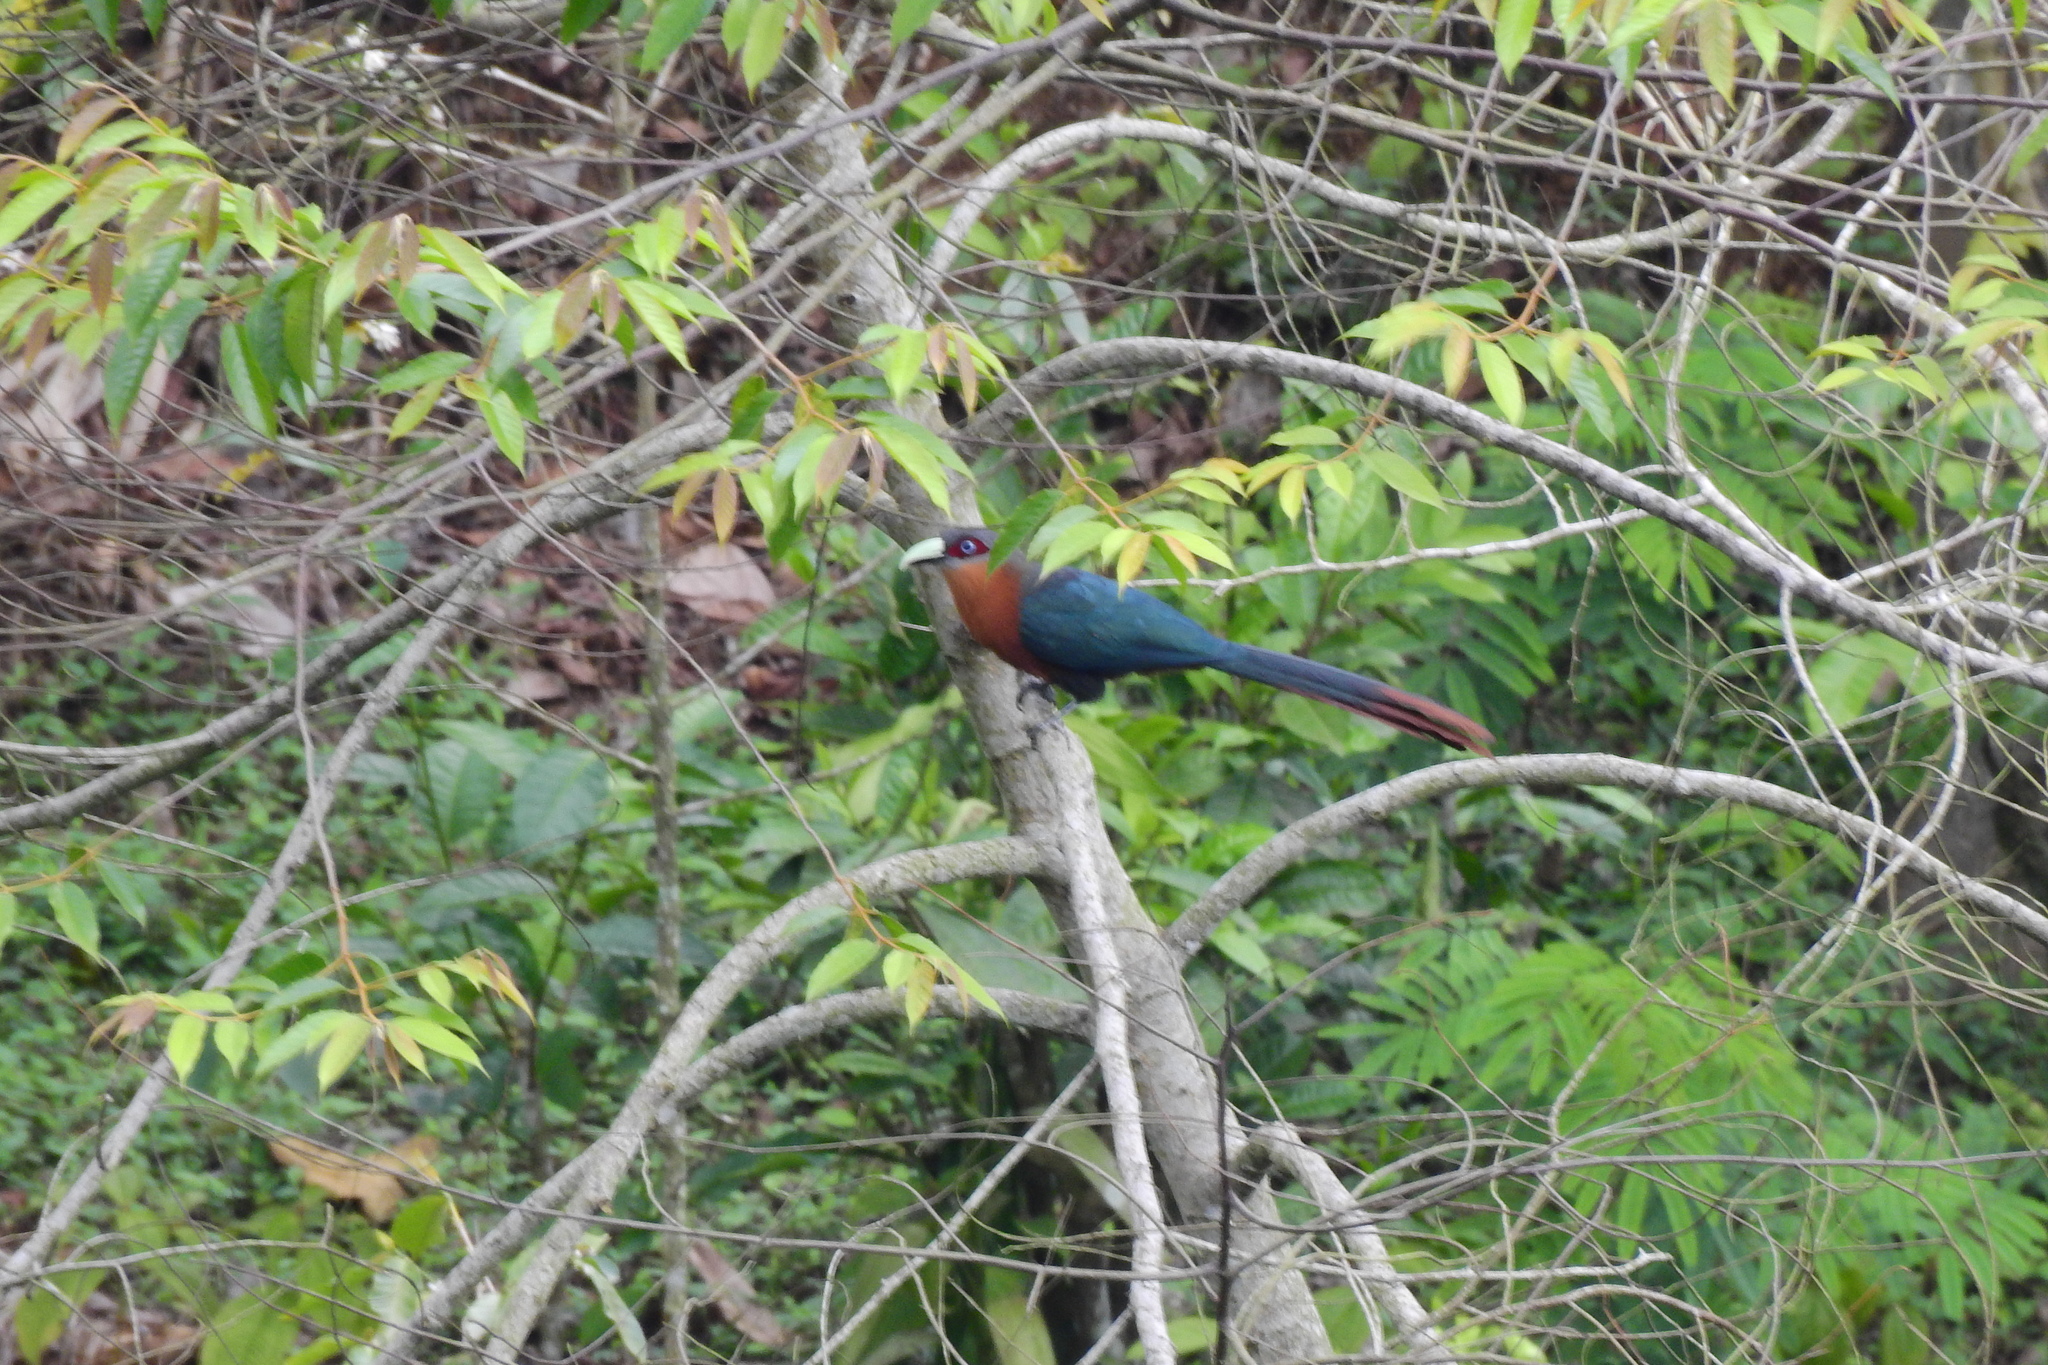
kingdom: Animalia
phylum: Chordata
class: Aves
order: Cuculiformes
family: Cuculidae
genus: Zanclostomus
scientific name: Zanclostomus curvirostris
